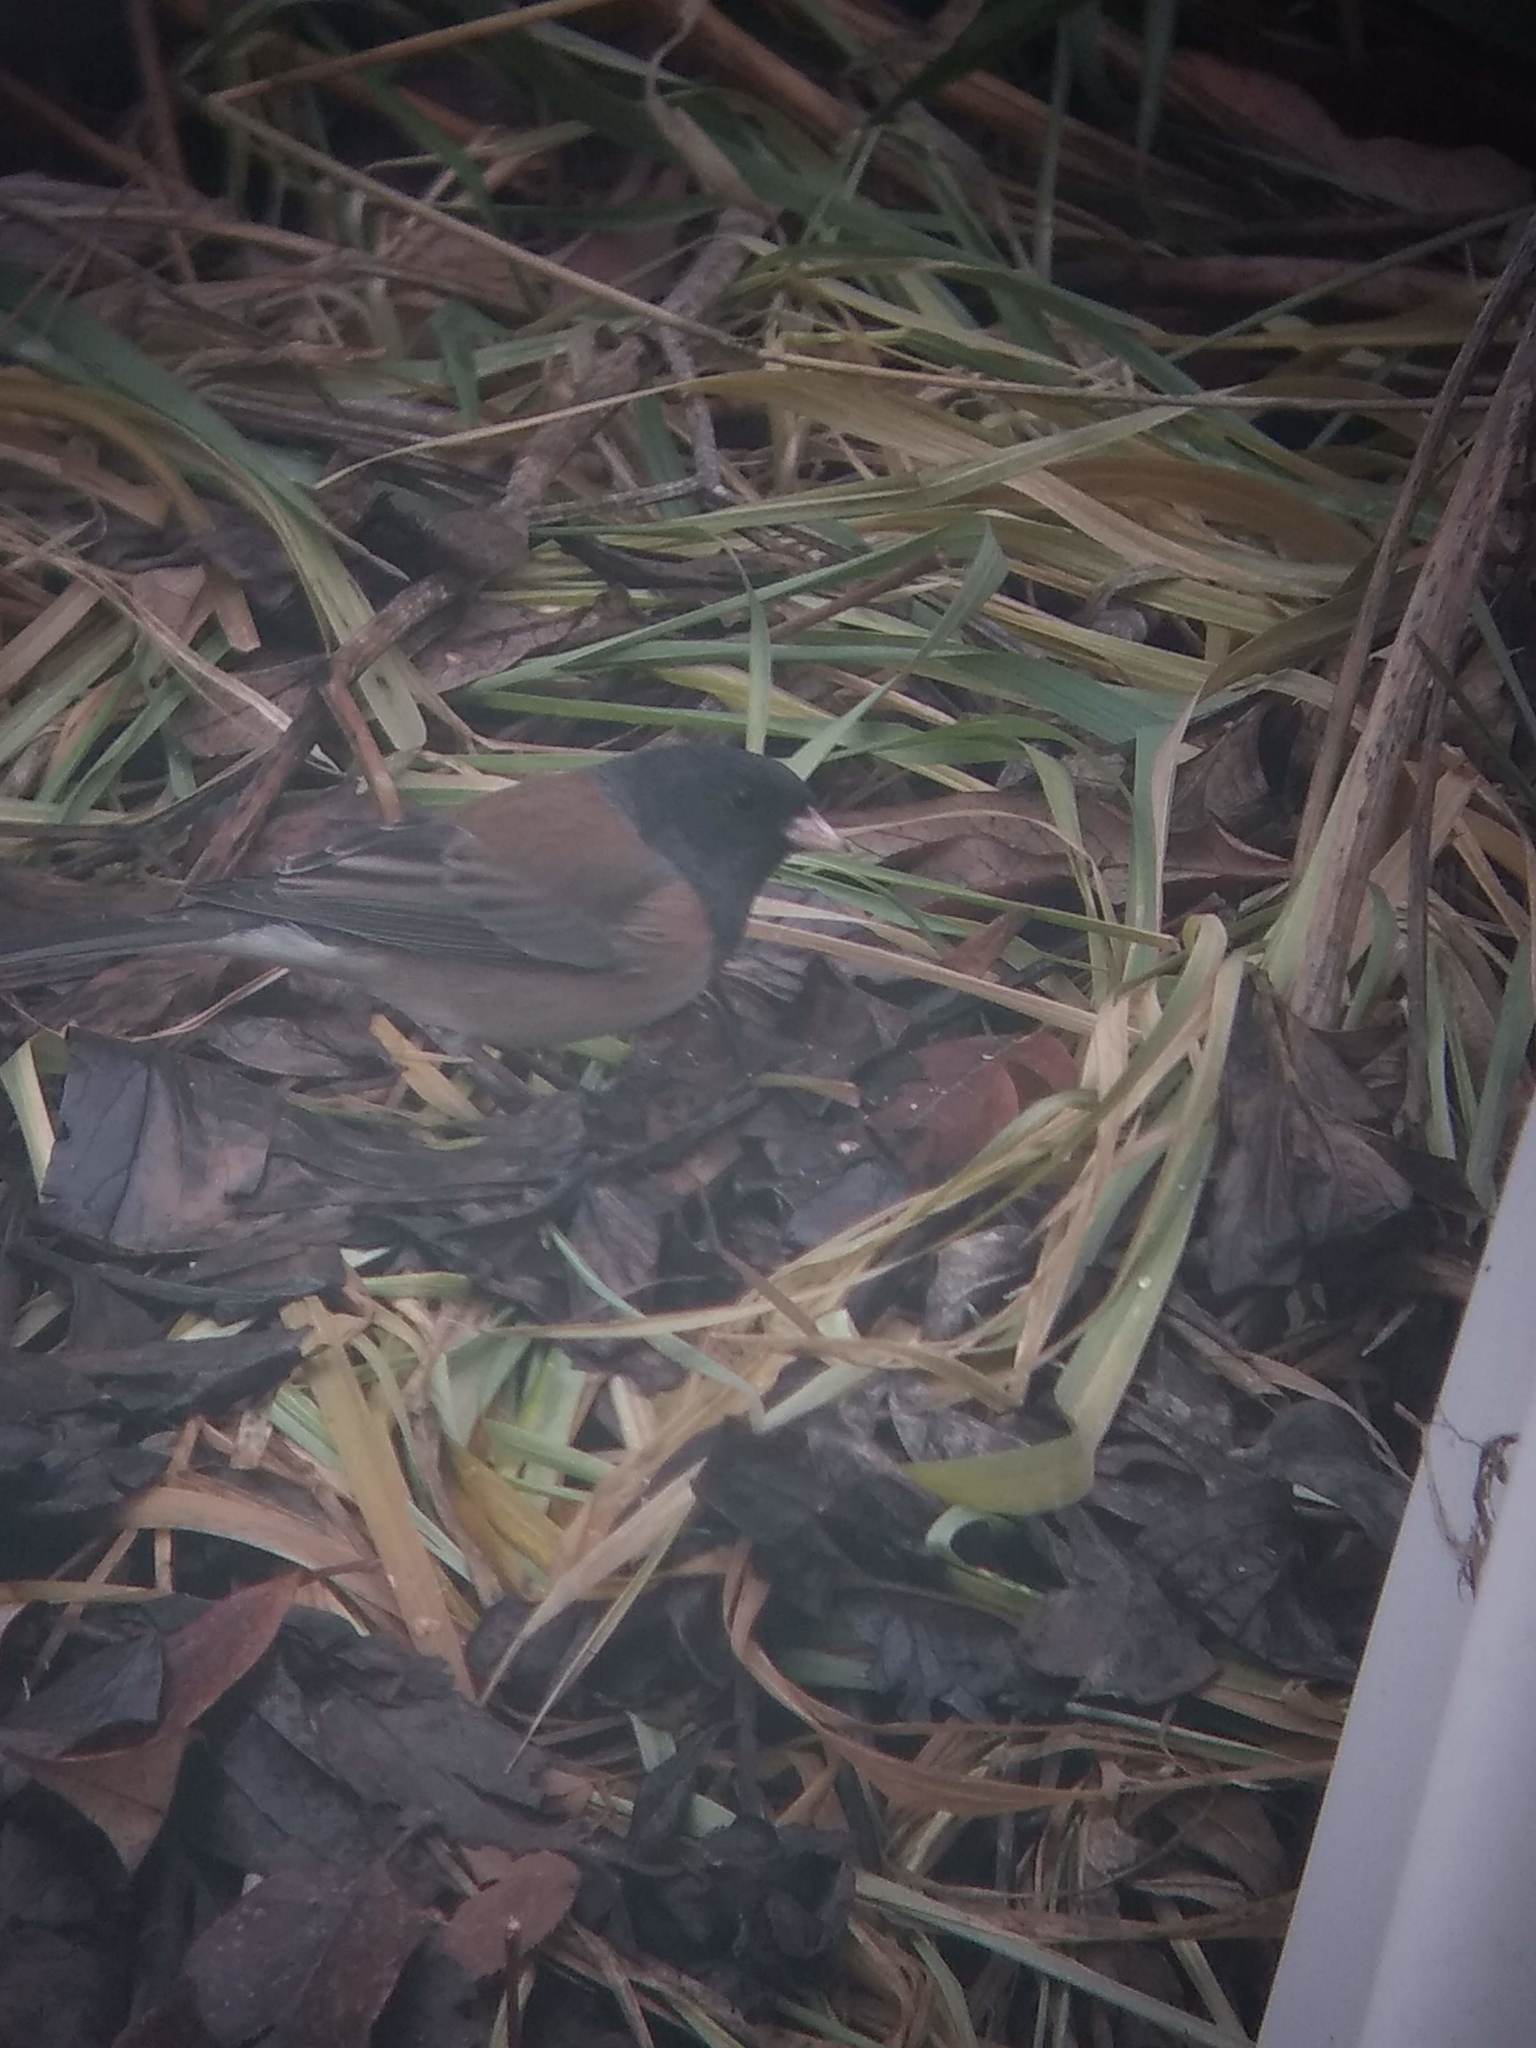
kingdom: Animalia
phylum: Chordata
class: Aves
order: Passeriformes
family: Passerellidae
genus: Junco
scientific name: Junco hyemalis
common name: Dark-eyed junco
